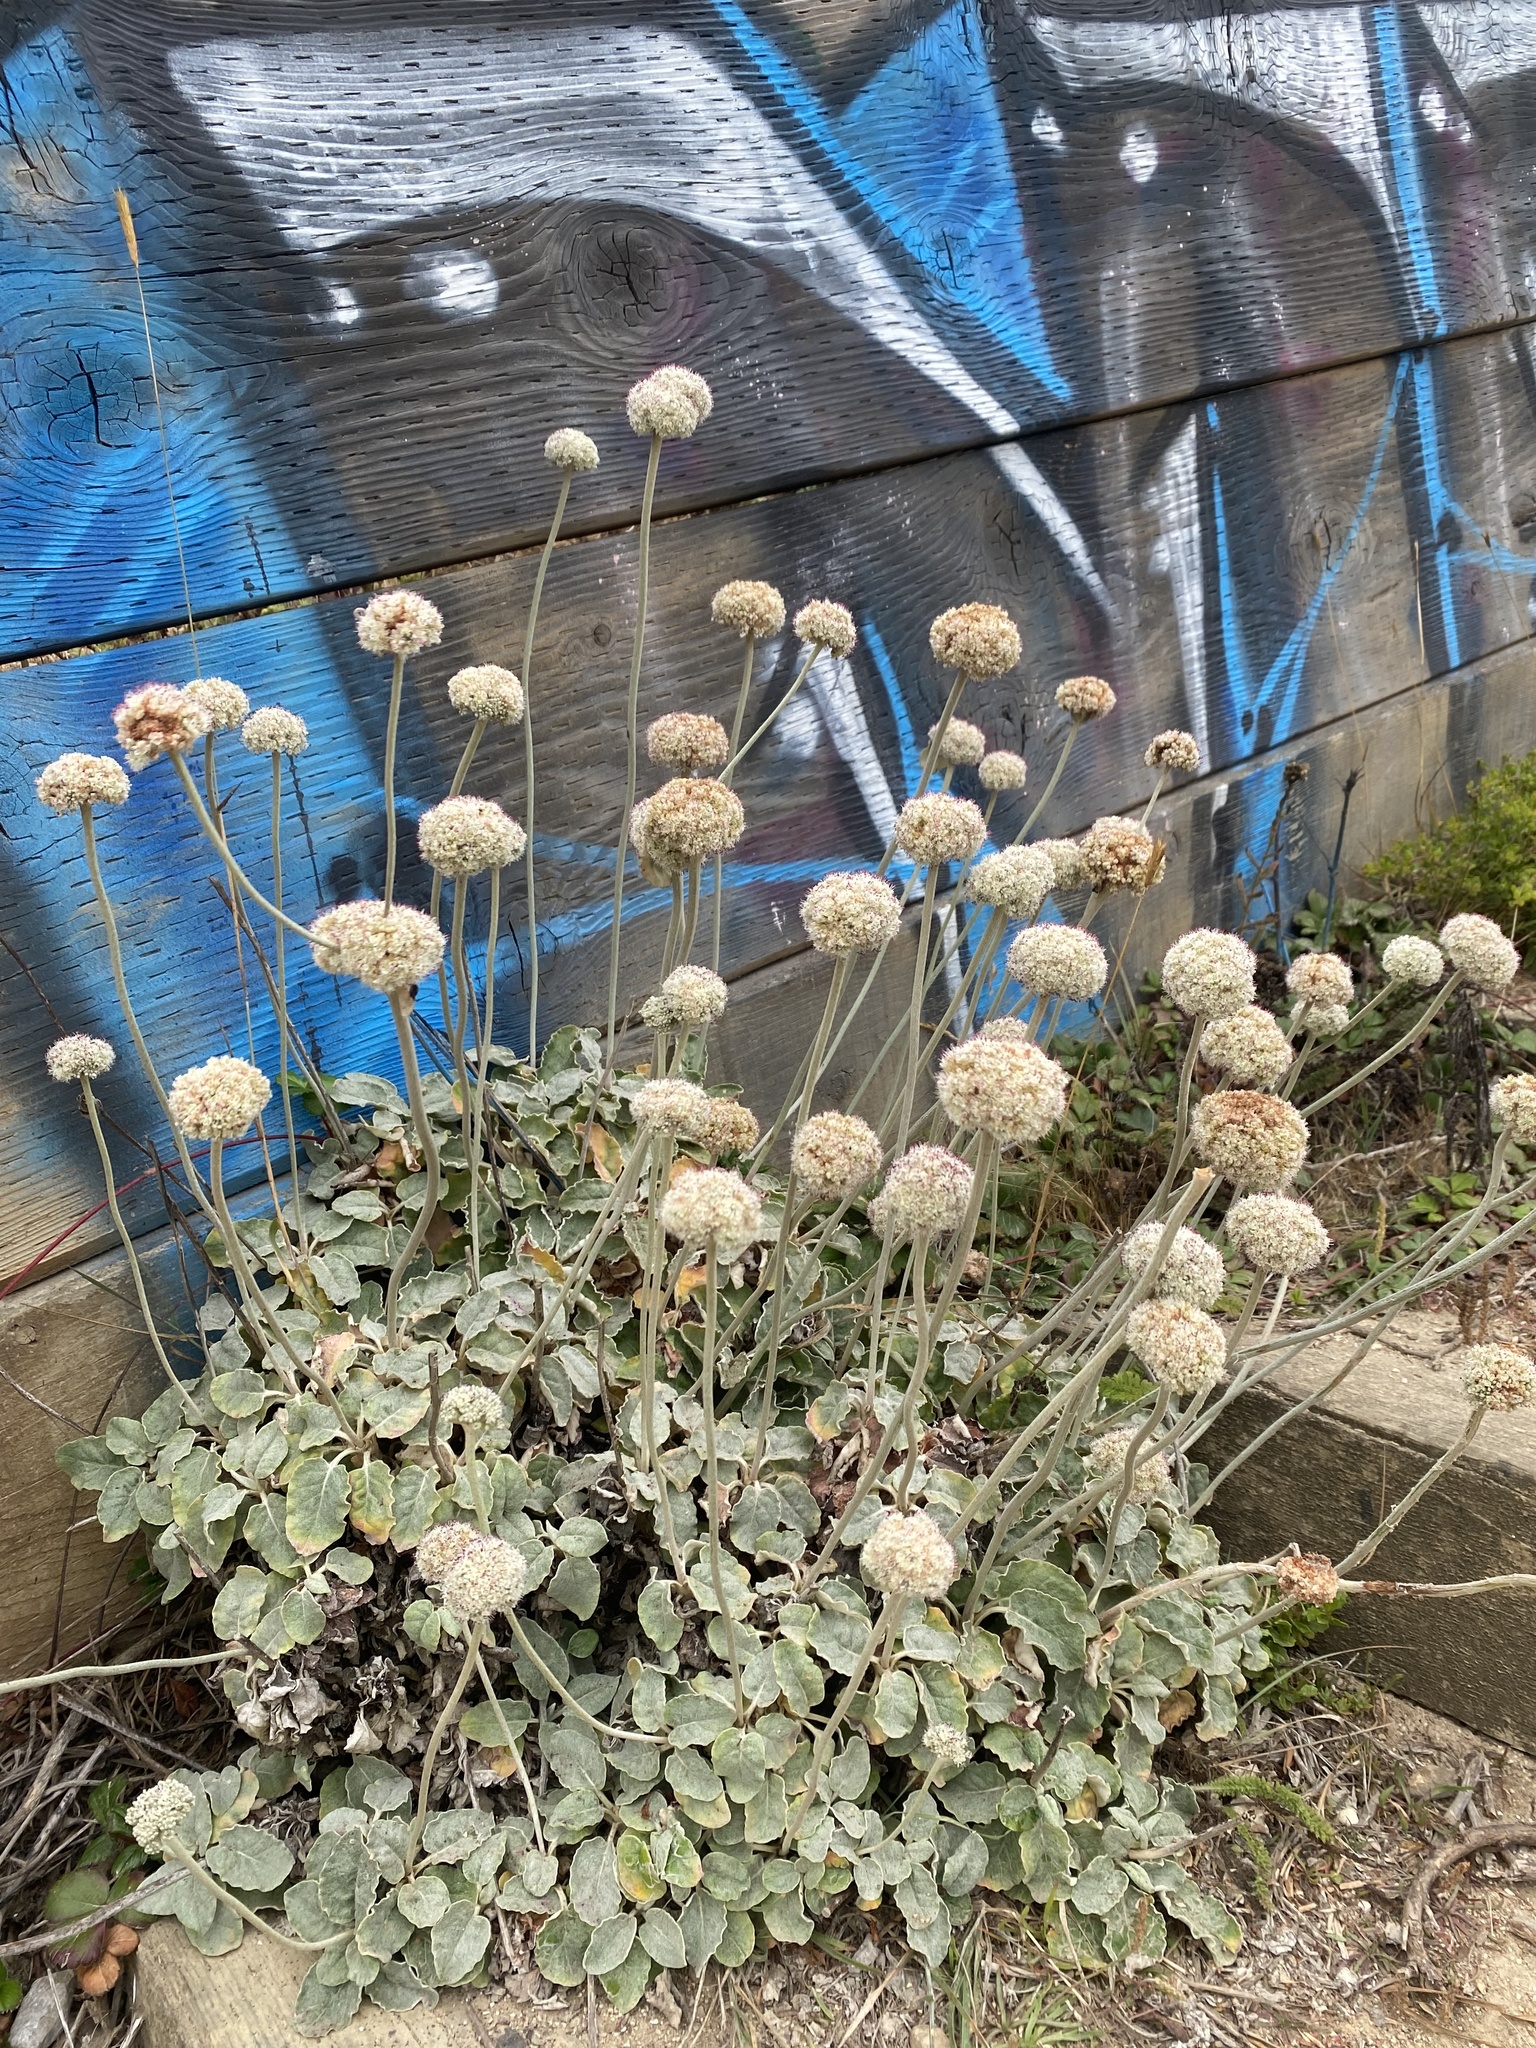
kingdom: Plantae
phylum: Tracheophyta
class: Magnoliopsida
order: Caryophyllales
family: Polygonaceae
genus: Eriogonum
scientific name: Eriogonum latifolium
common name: Seaside wild buckwheat
